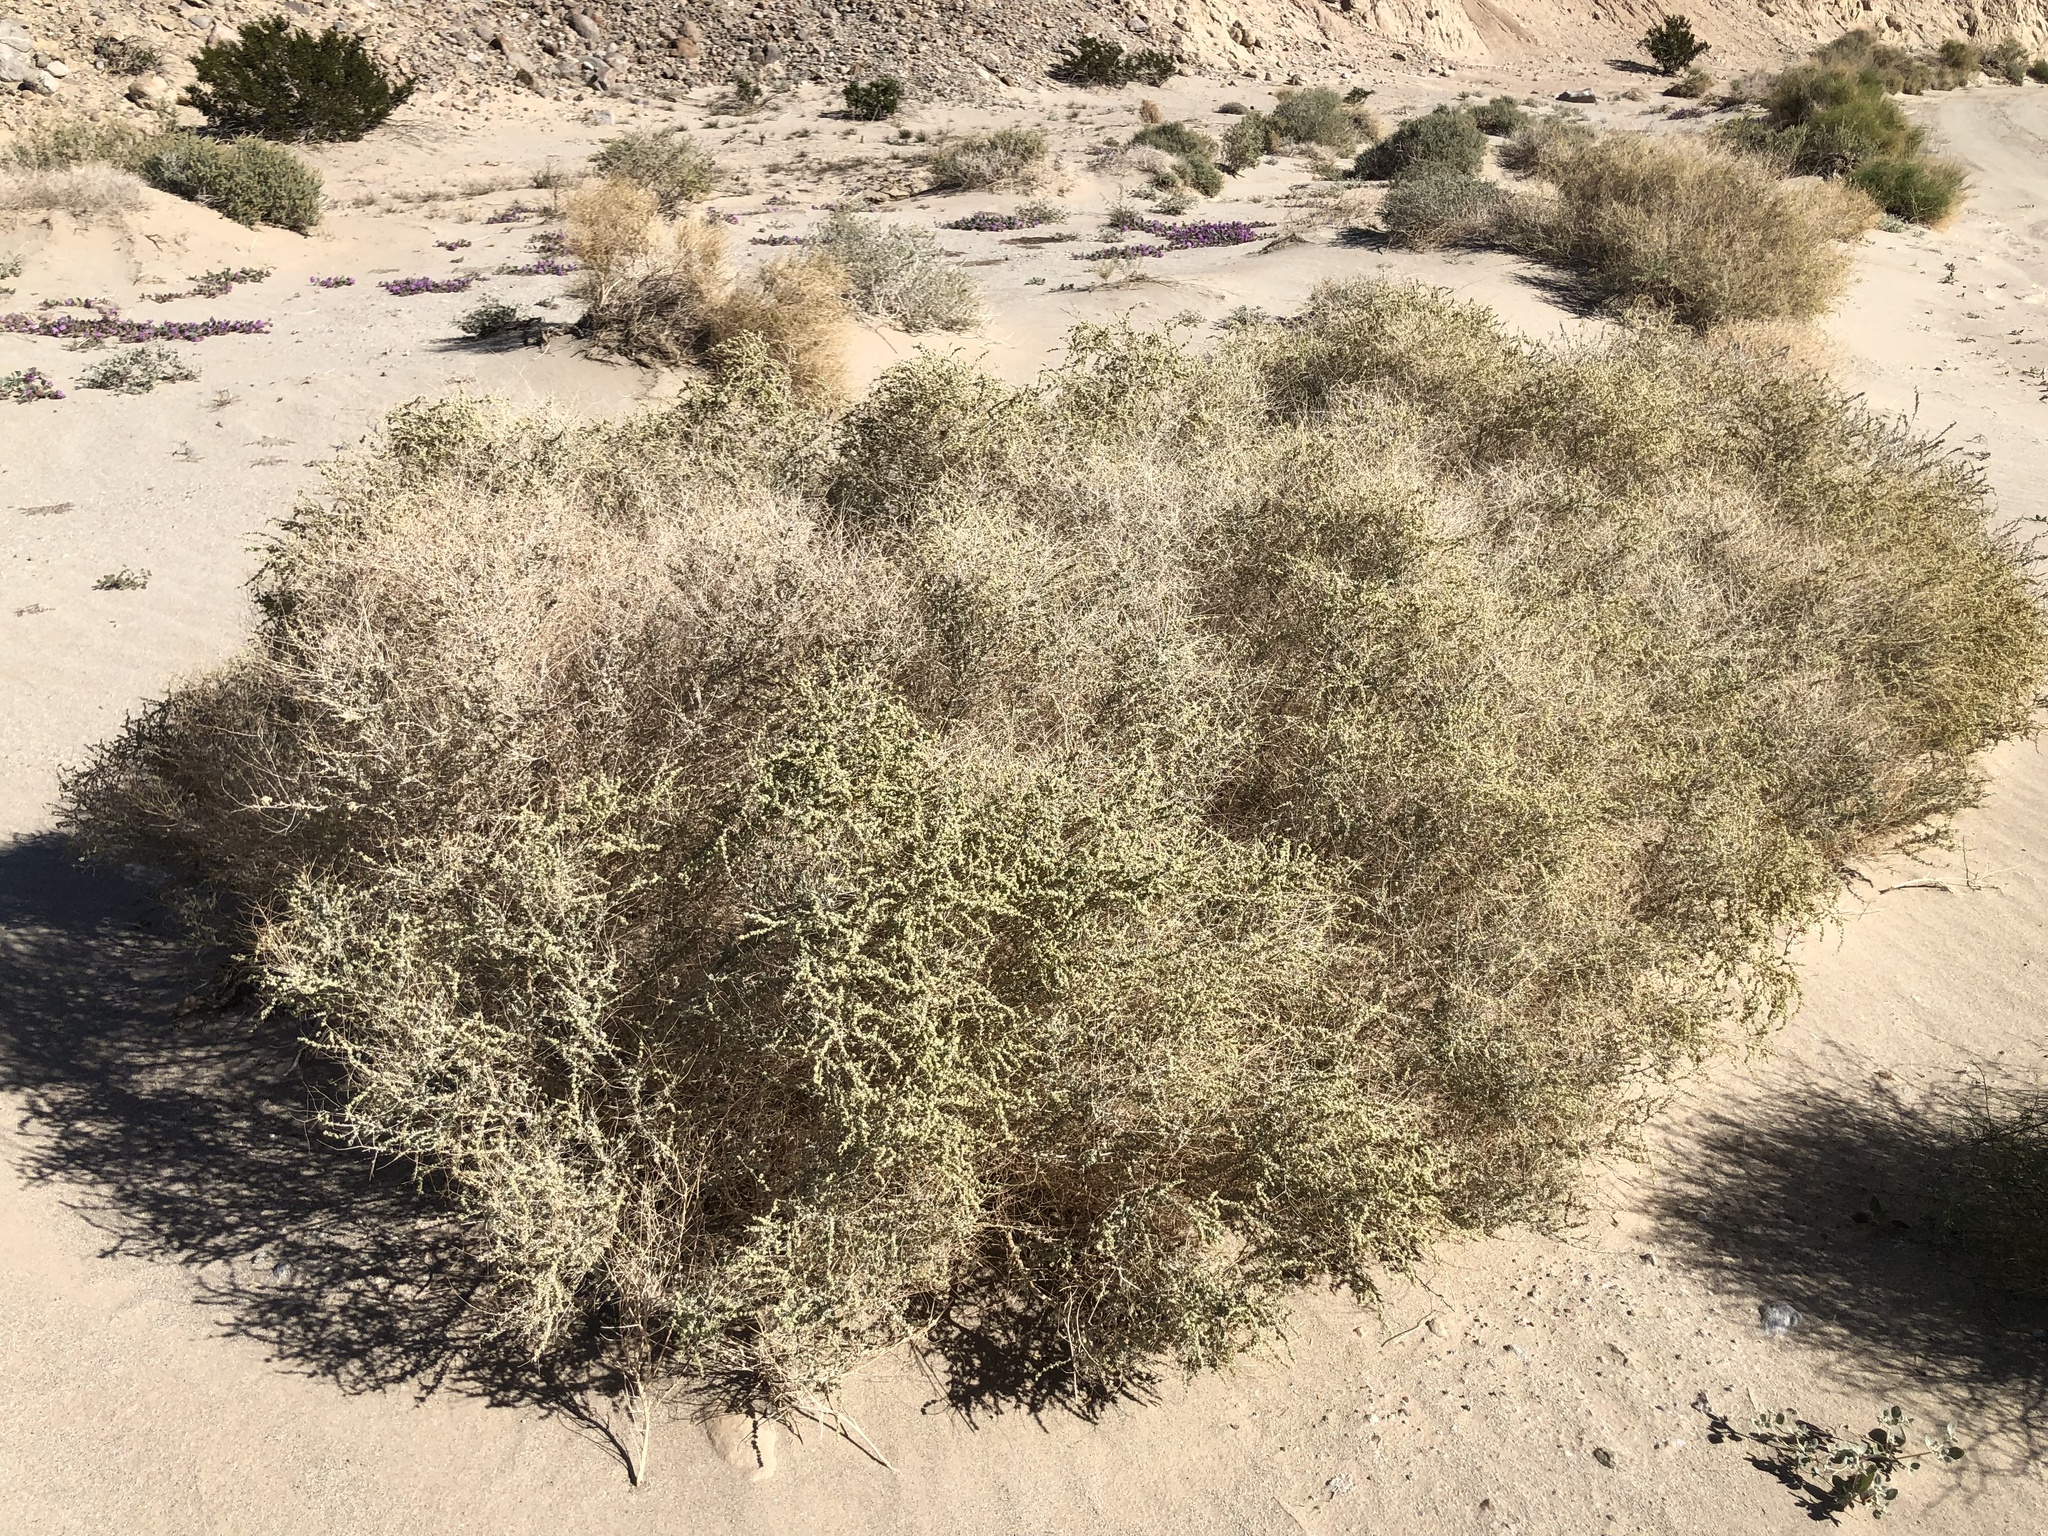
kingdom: Plantae
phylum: Tracheophyta
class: Magnoliopsida
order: Caryophyllales
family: Amaranthaceae
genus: Atriplex
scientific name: Atriplex polycarpa
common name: Desert saltbush
